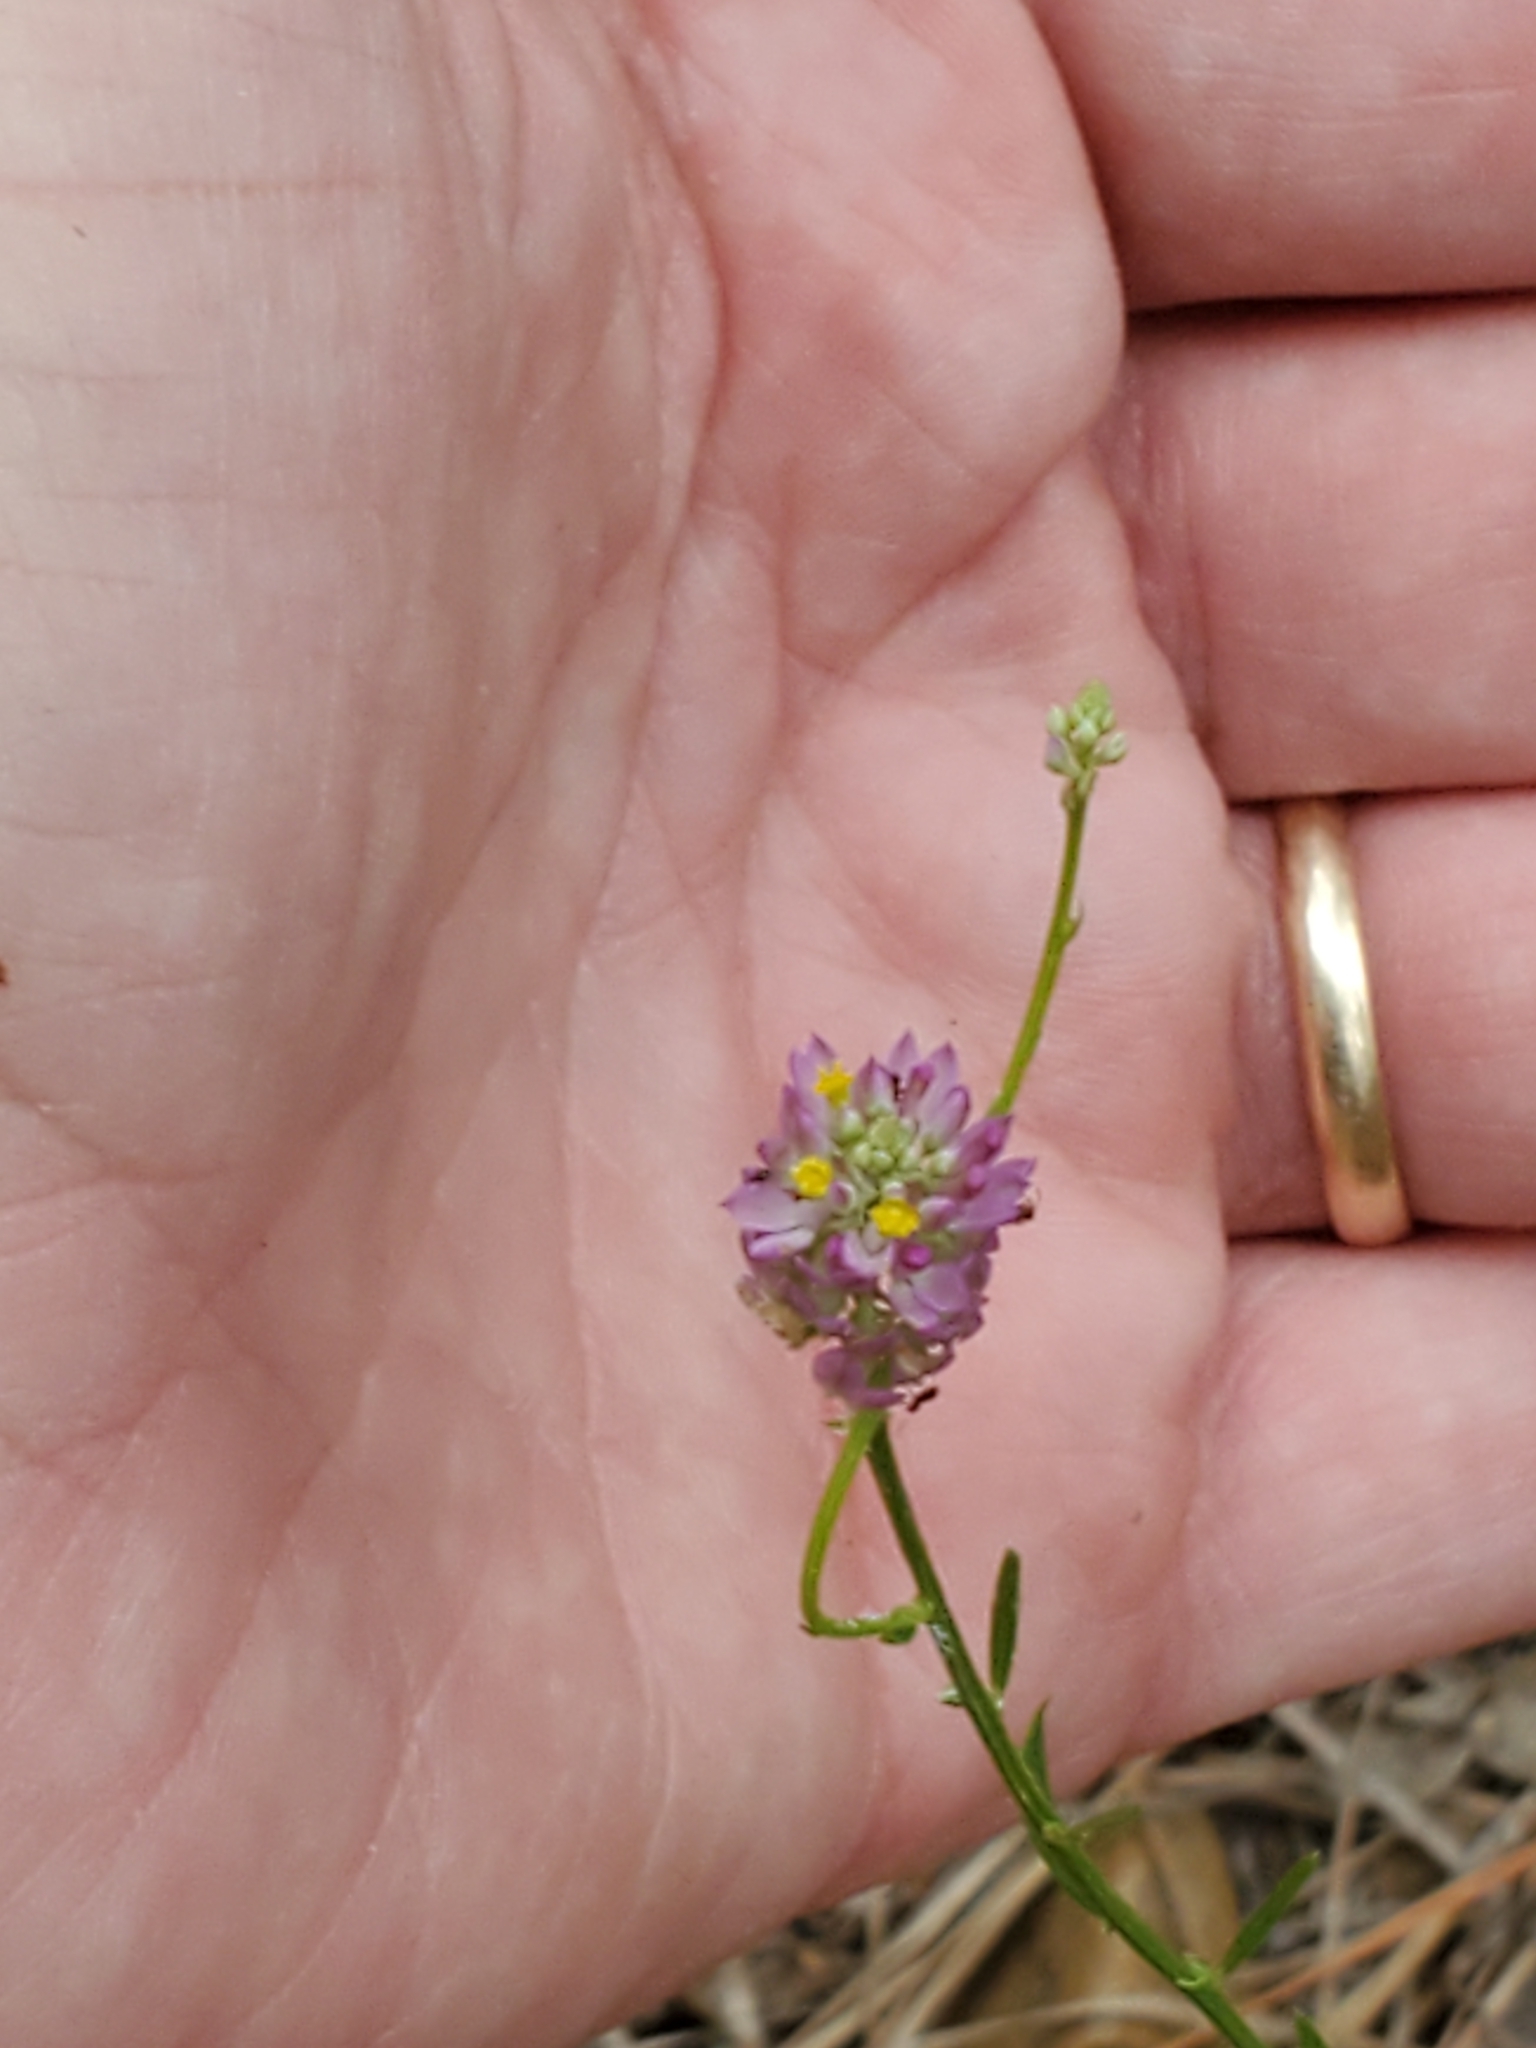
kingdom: Plantae
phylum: Tracheophyta
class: Magnoliopsida
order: Fabales
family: Polygalaceae
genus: Polygala
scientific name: Polygala mariana
